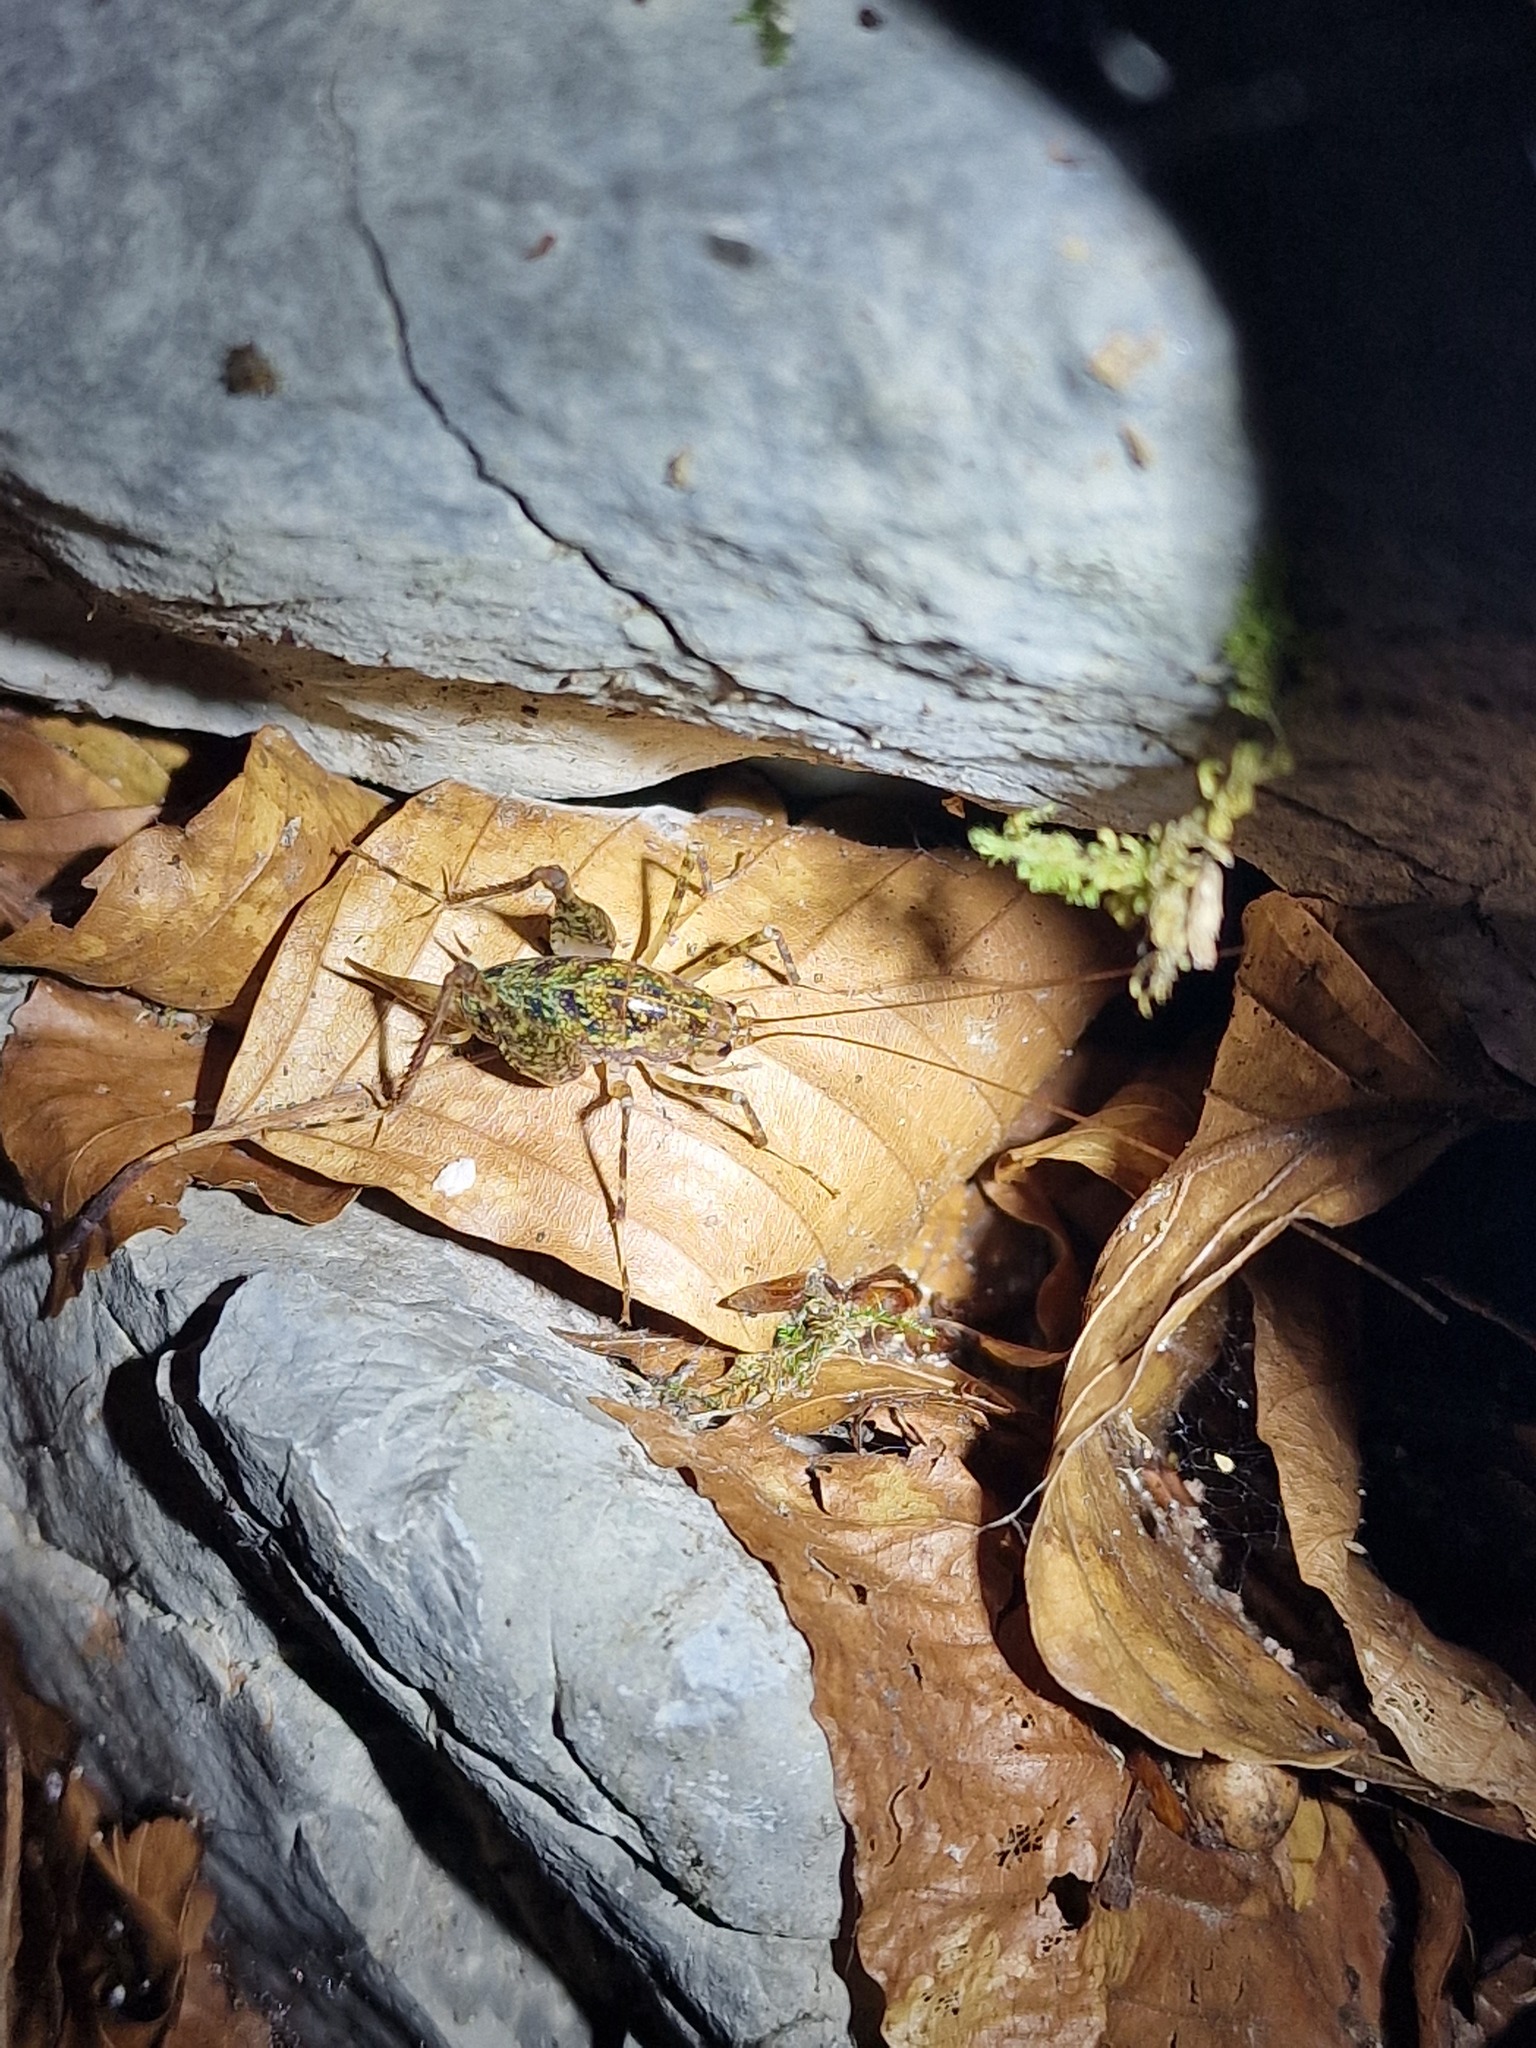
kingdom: Animalia
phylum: Arthropoda
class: Insecta
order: Orthoptera
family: Rhaphidophoridae
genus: Troglophilus
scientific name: Troglophilus neglectus
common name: Neglected cave-cricket
